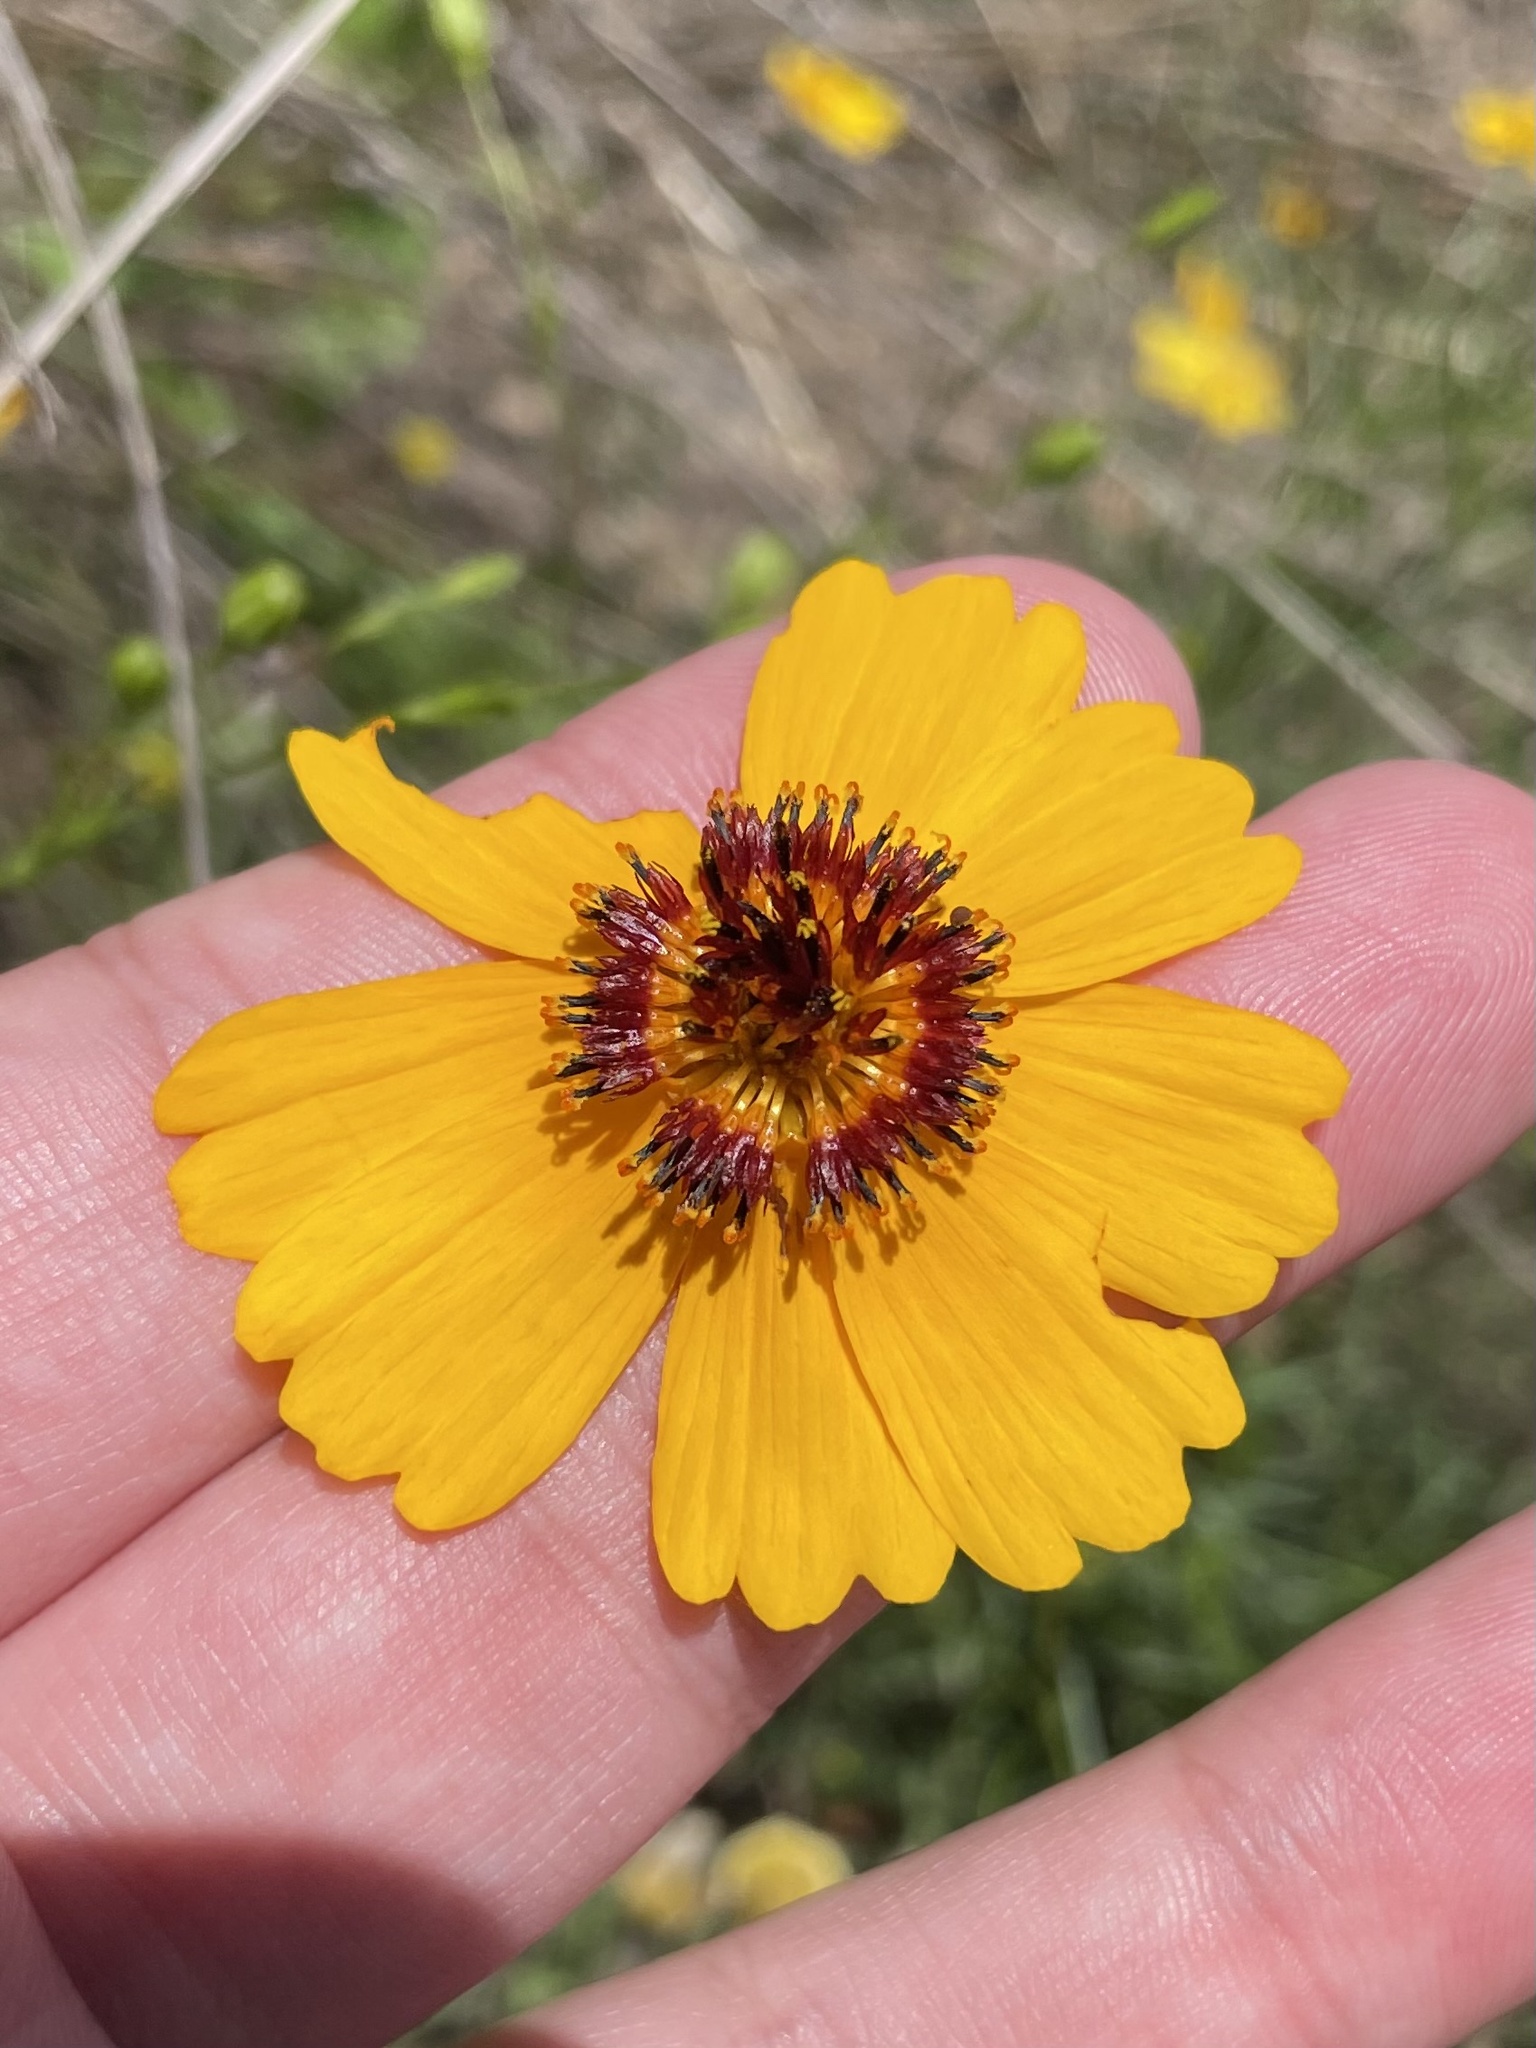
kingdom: Plantae
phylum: Tracheophyta
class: Magnoliopsida
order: Asterales
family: Asteraceae
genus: Thelesperma
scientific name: Thelesperma filifolium
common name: Stiff greenthread
